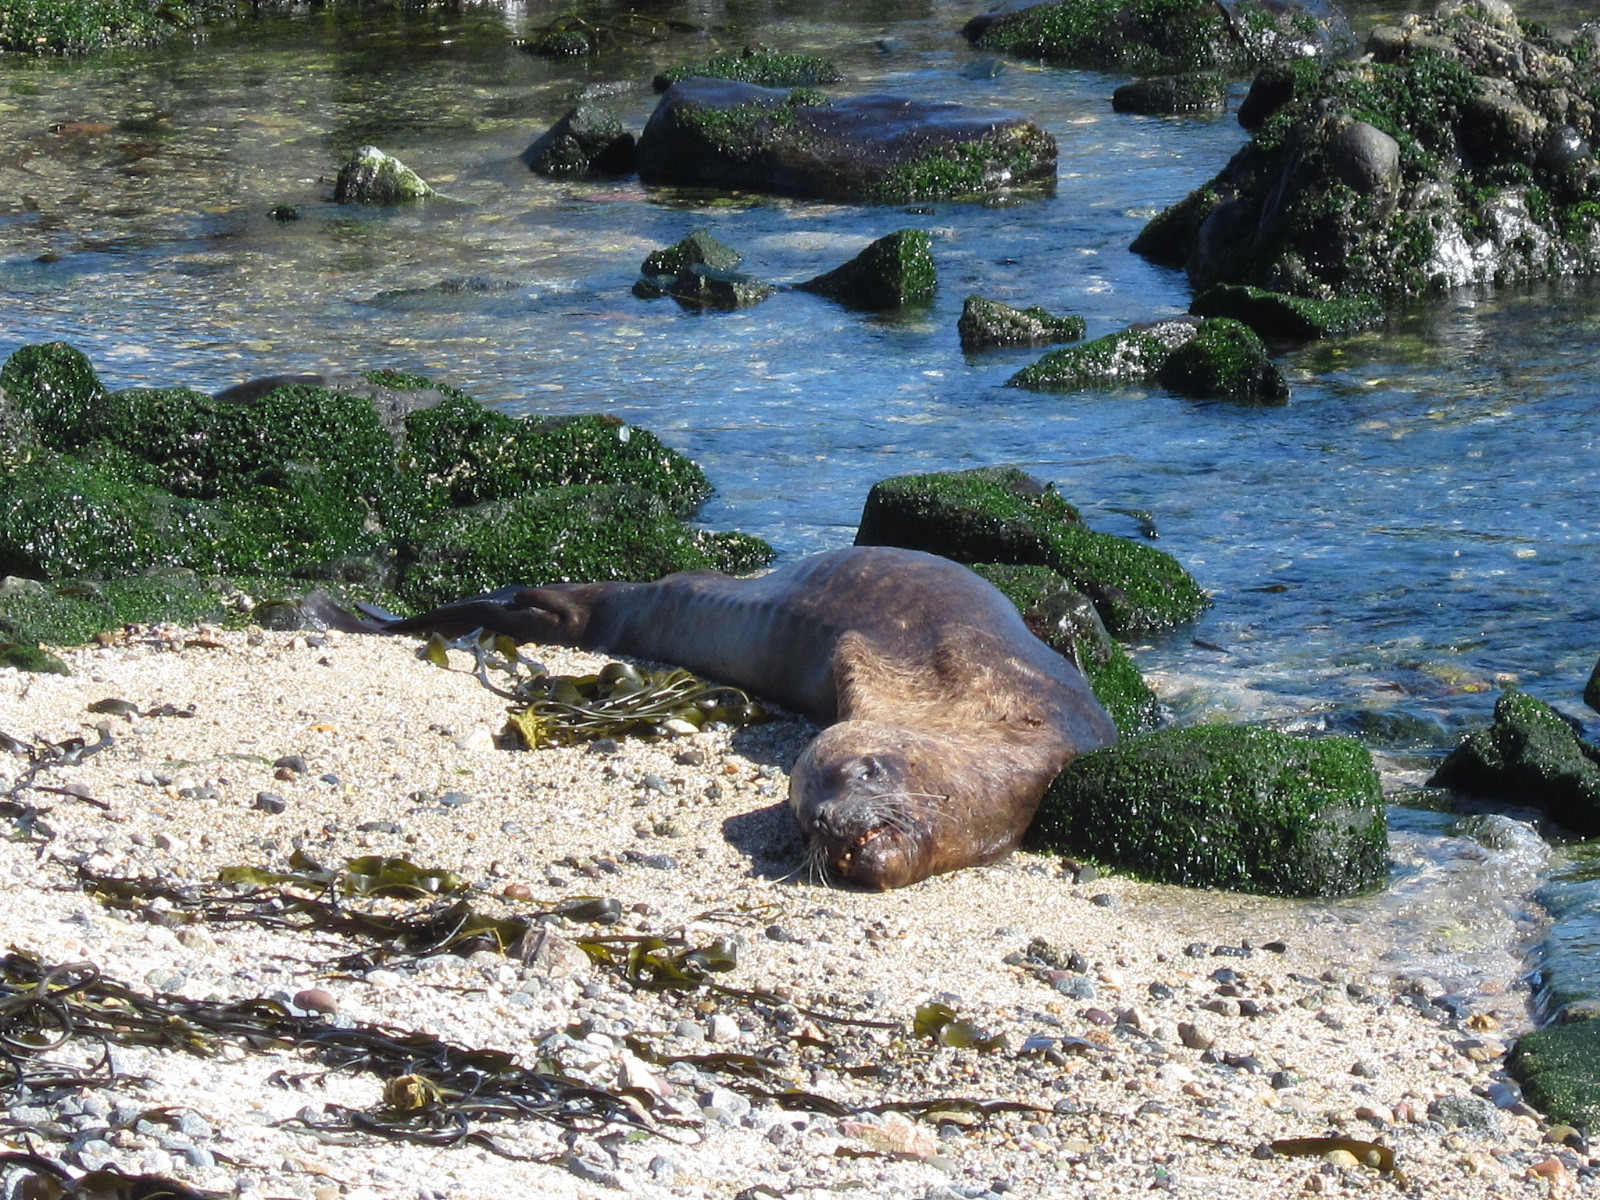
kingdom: Animalia
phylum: Chordata
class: Mammalia
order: Carnivora
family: Otariidae
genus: Otaria
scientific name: Otaria byronia
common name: South american sea lion
